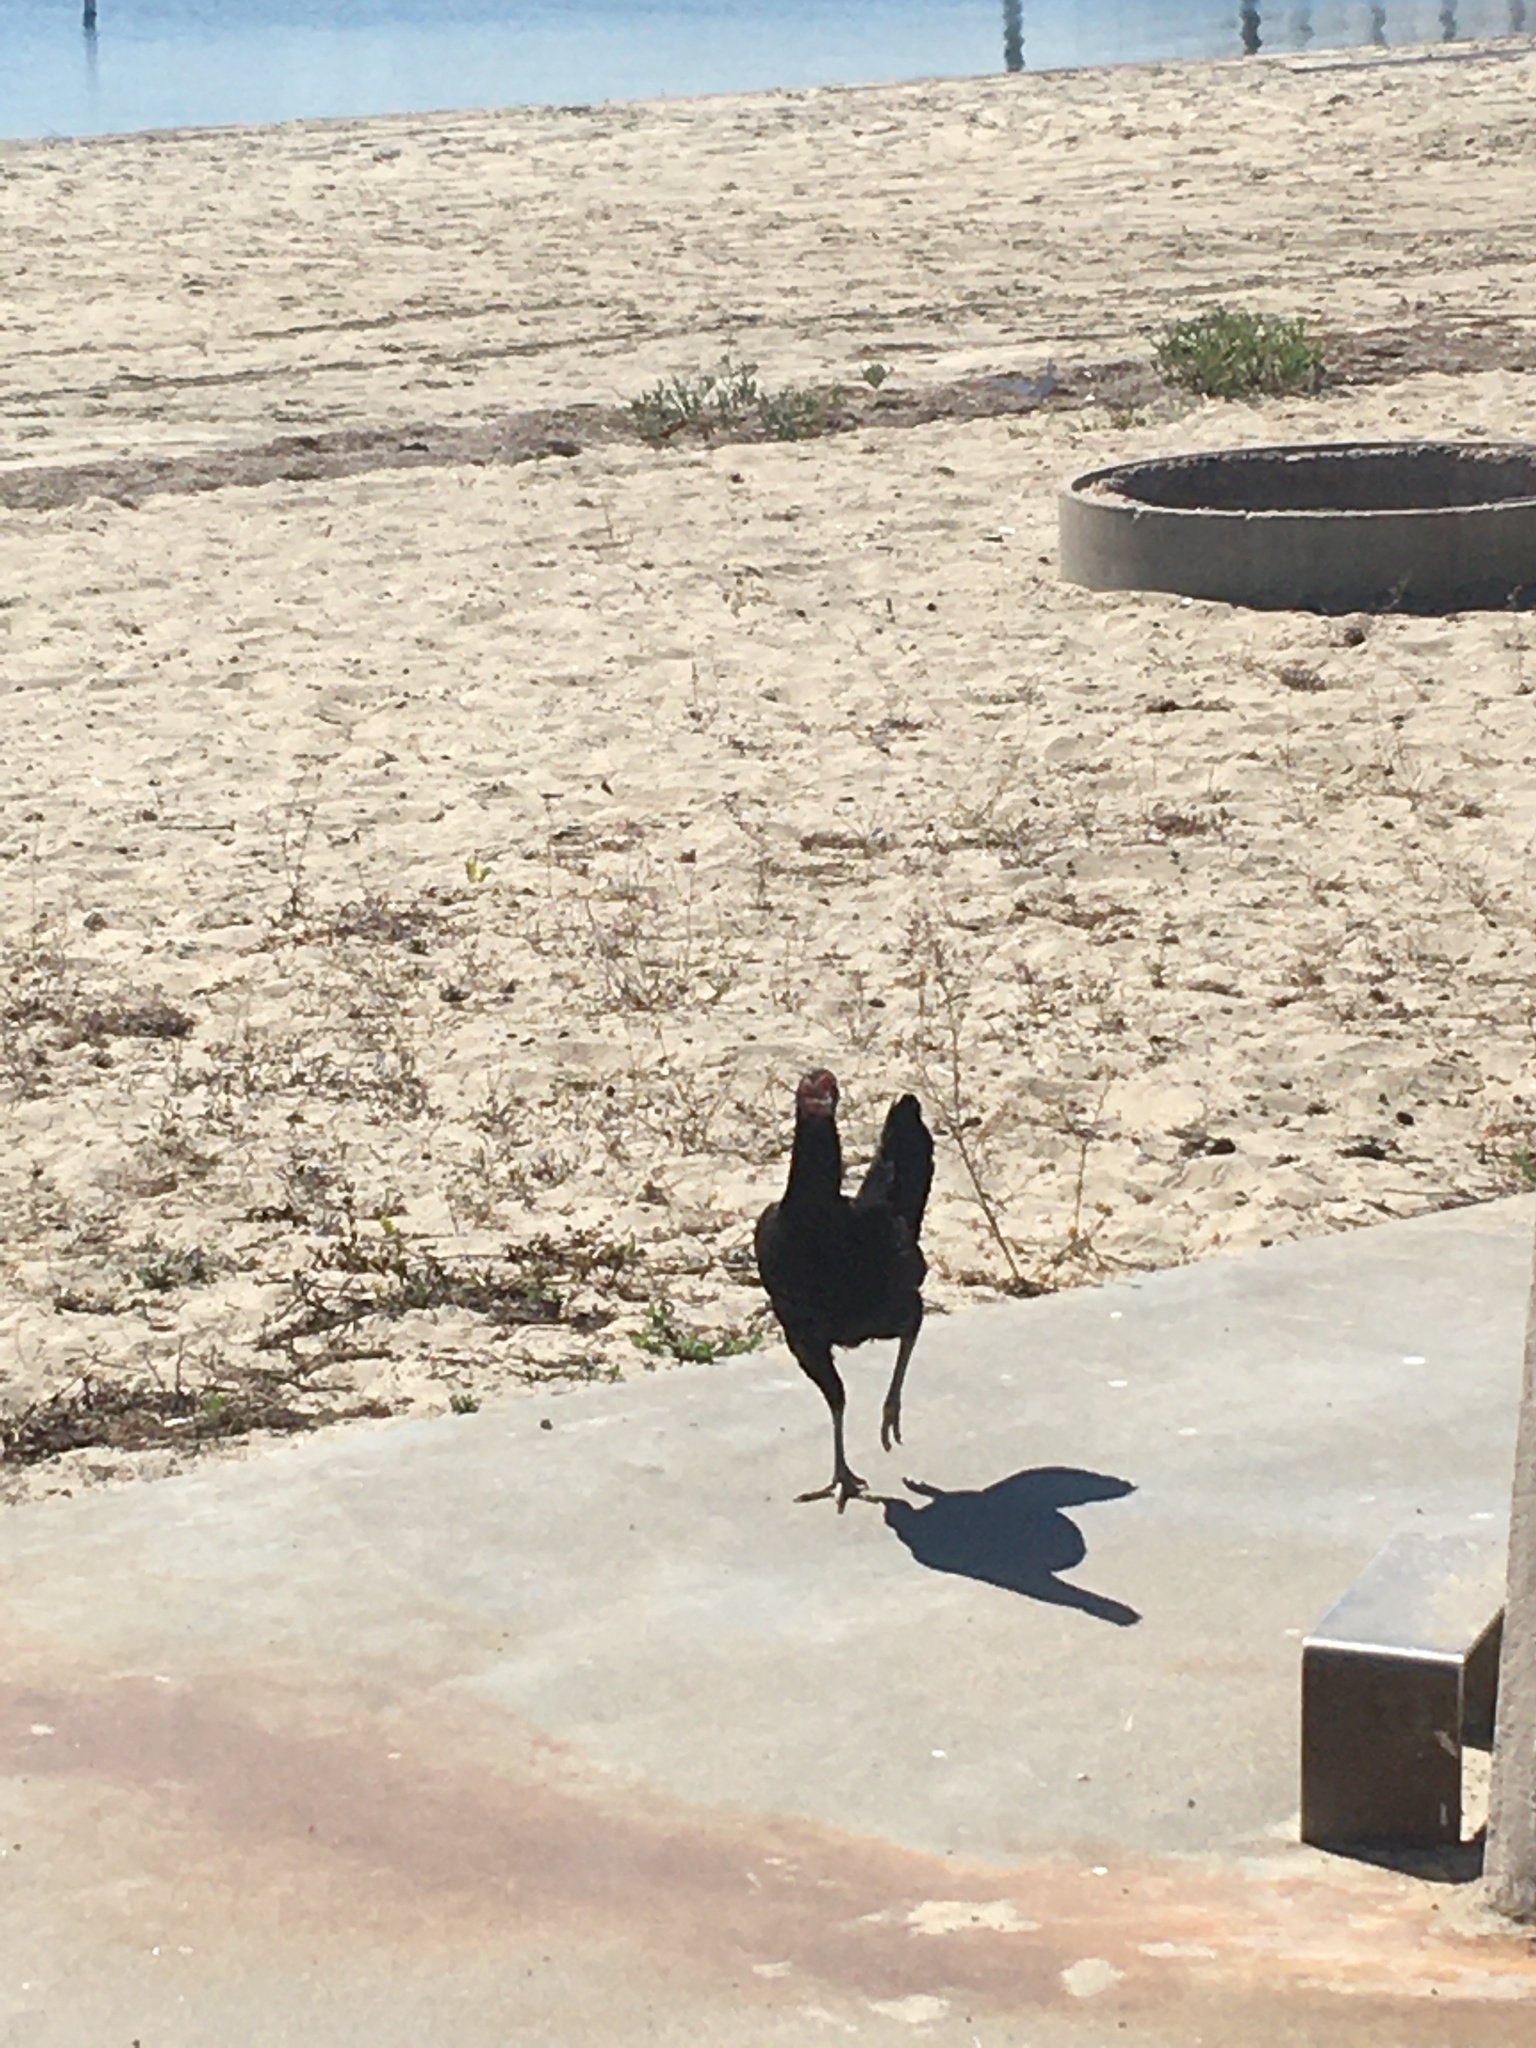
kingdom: Animalia
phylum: Chordata
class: Aves
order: Galliformes
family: Phasianidae
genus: Gallus
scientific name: Gallus gallus
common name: Red junglefowl
